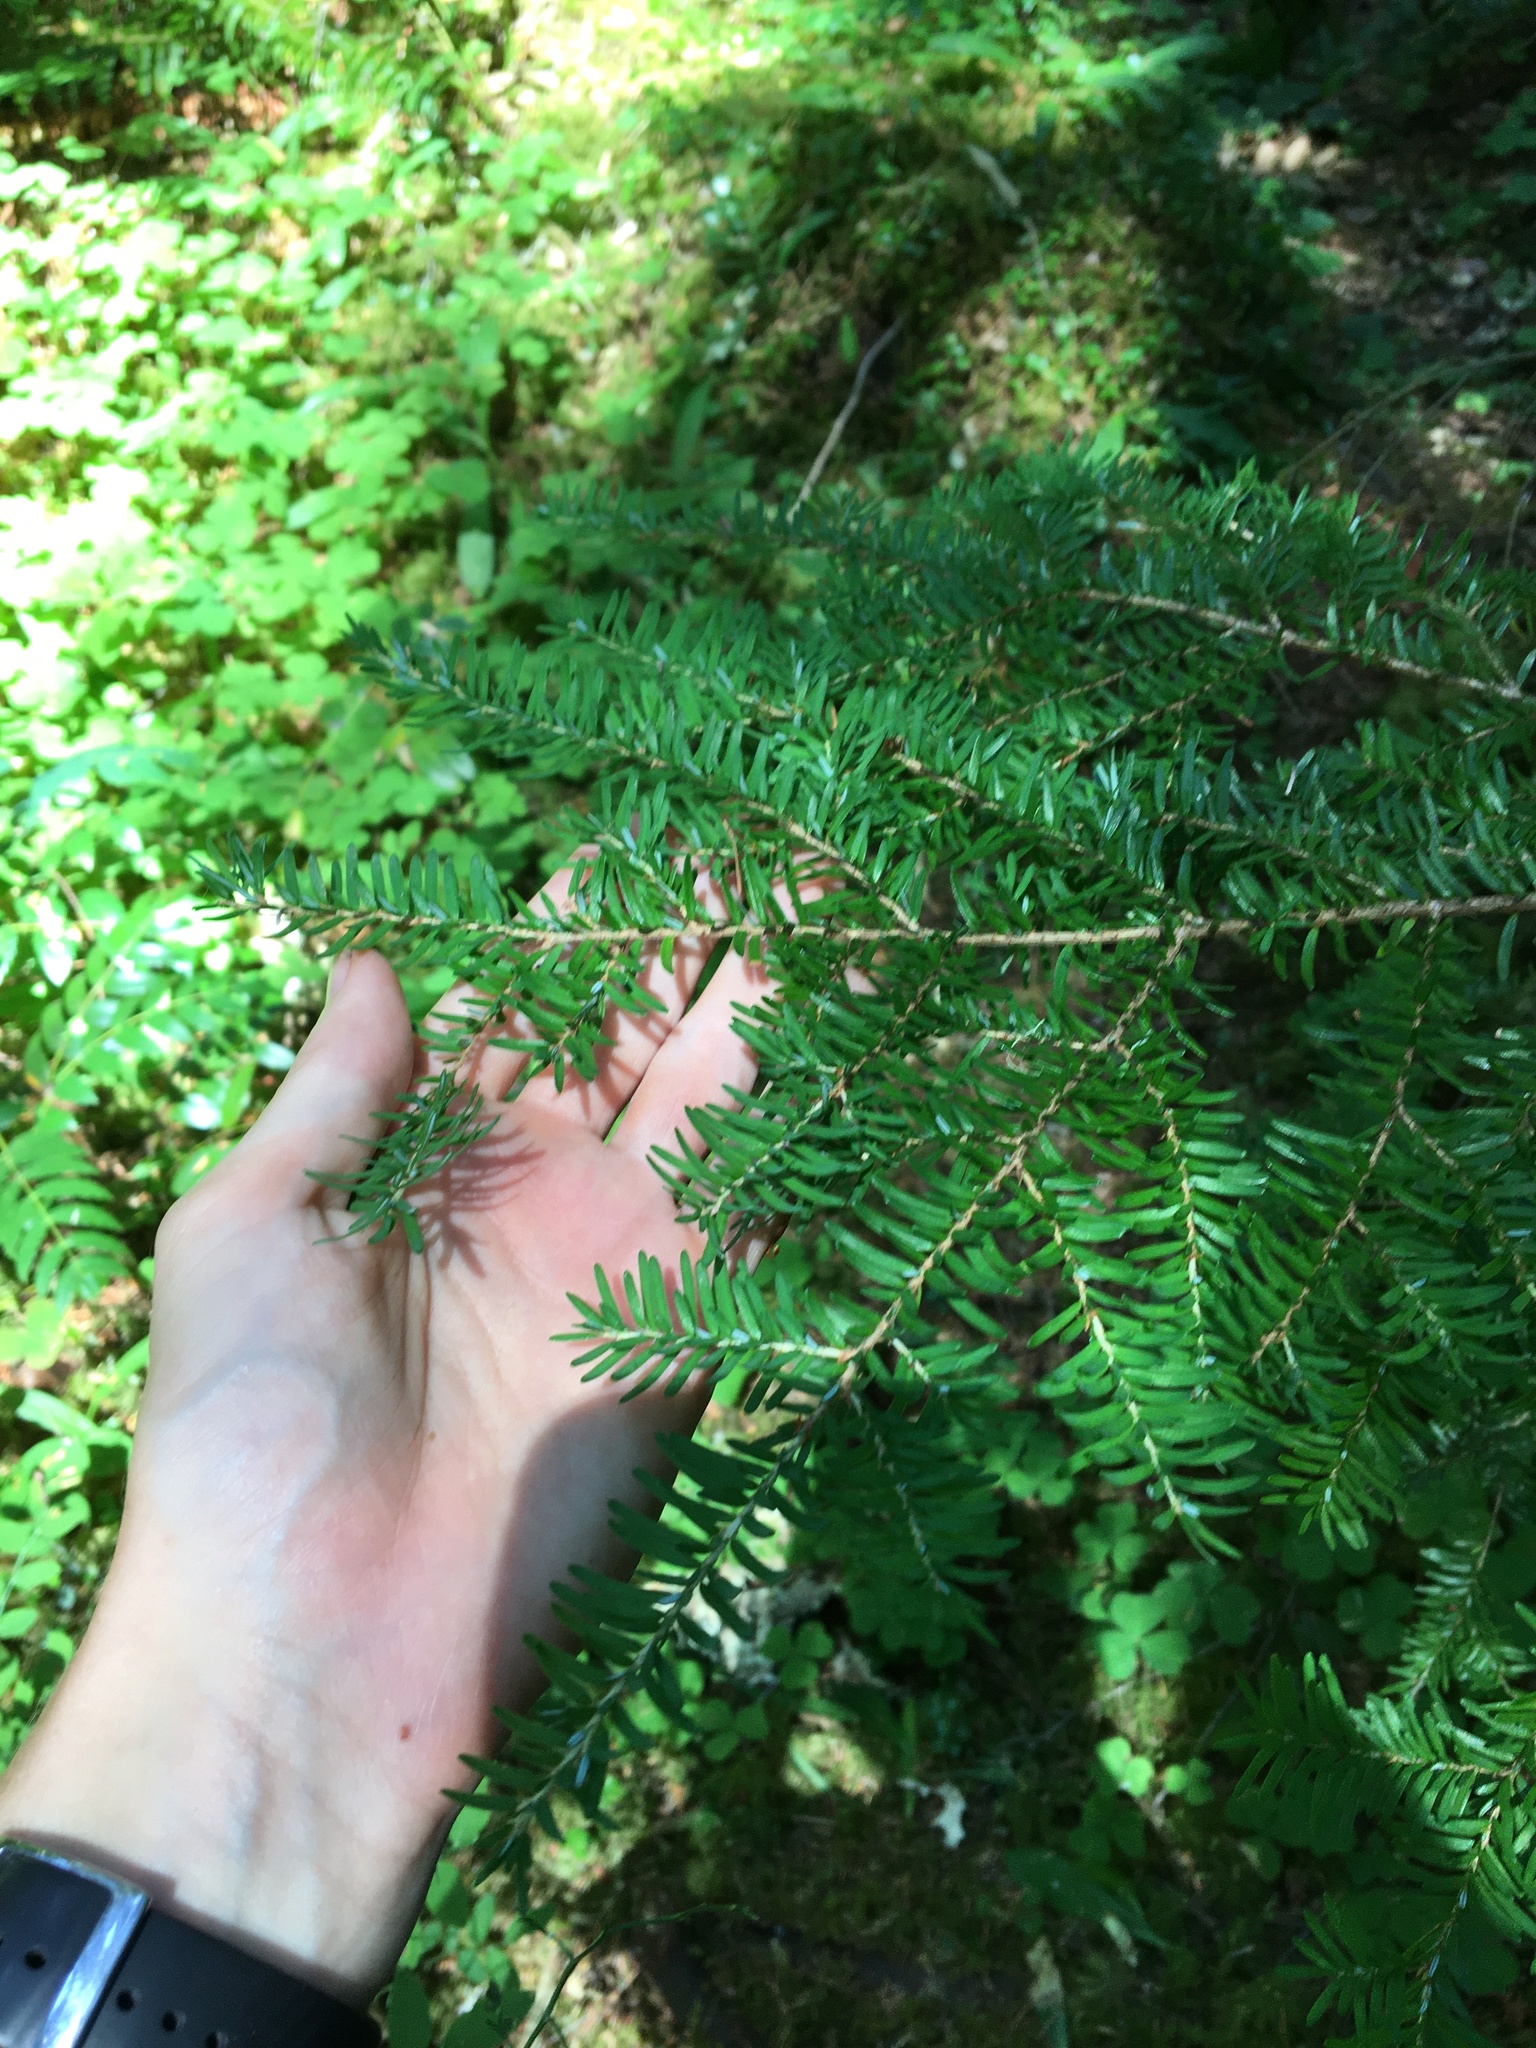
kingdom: Plantae
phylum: Tracheophyta
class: Pinopsida
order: Pinales
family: Pinaceae
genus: Tsuga
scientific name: Tsuga heterophylla
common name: Western hemlock
